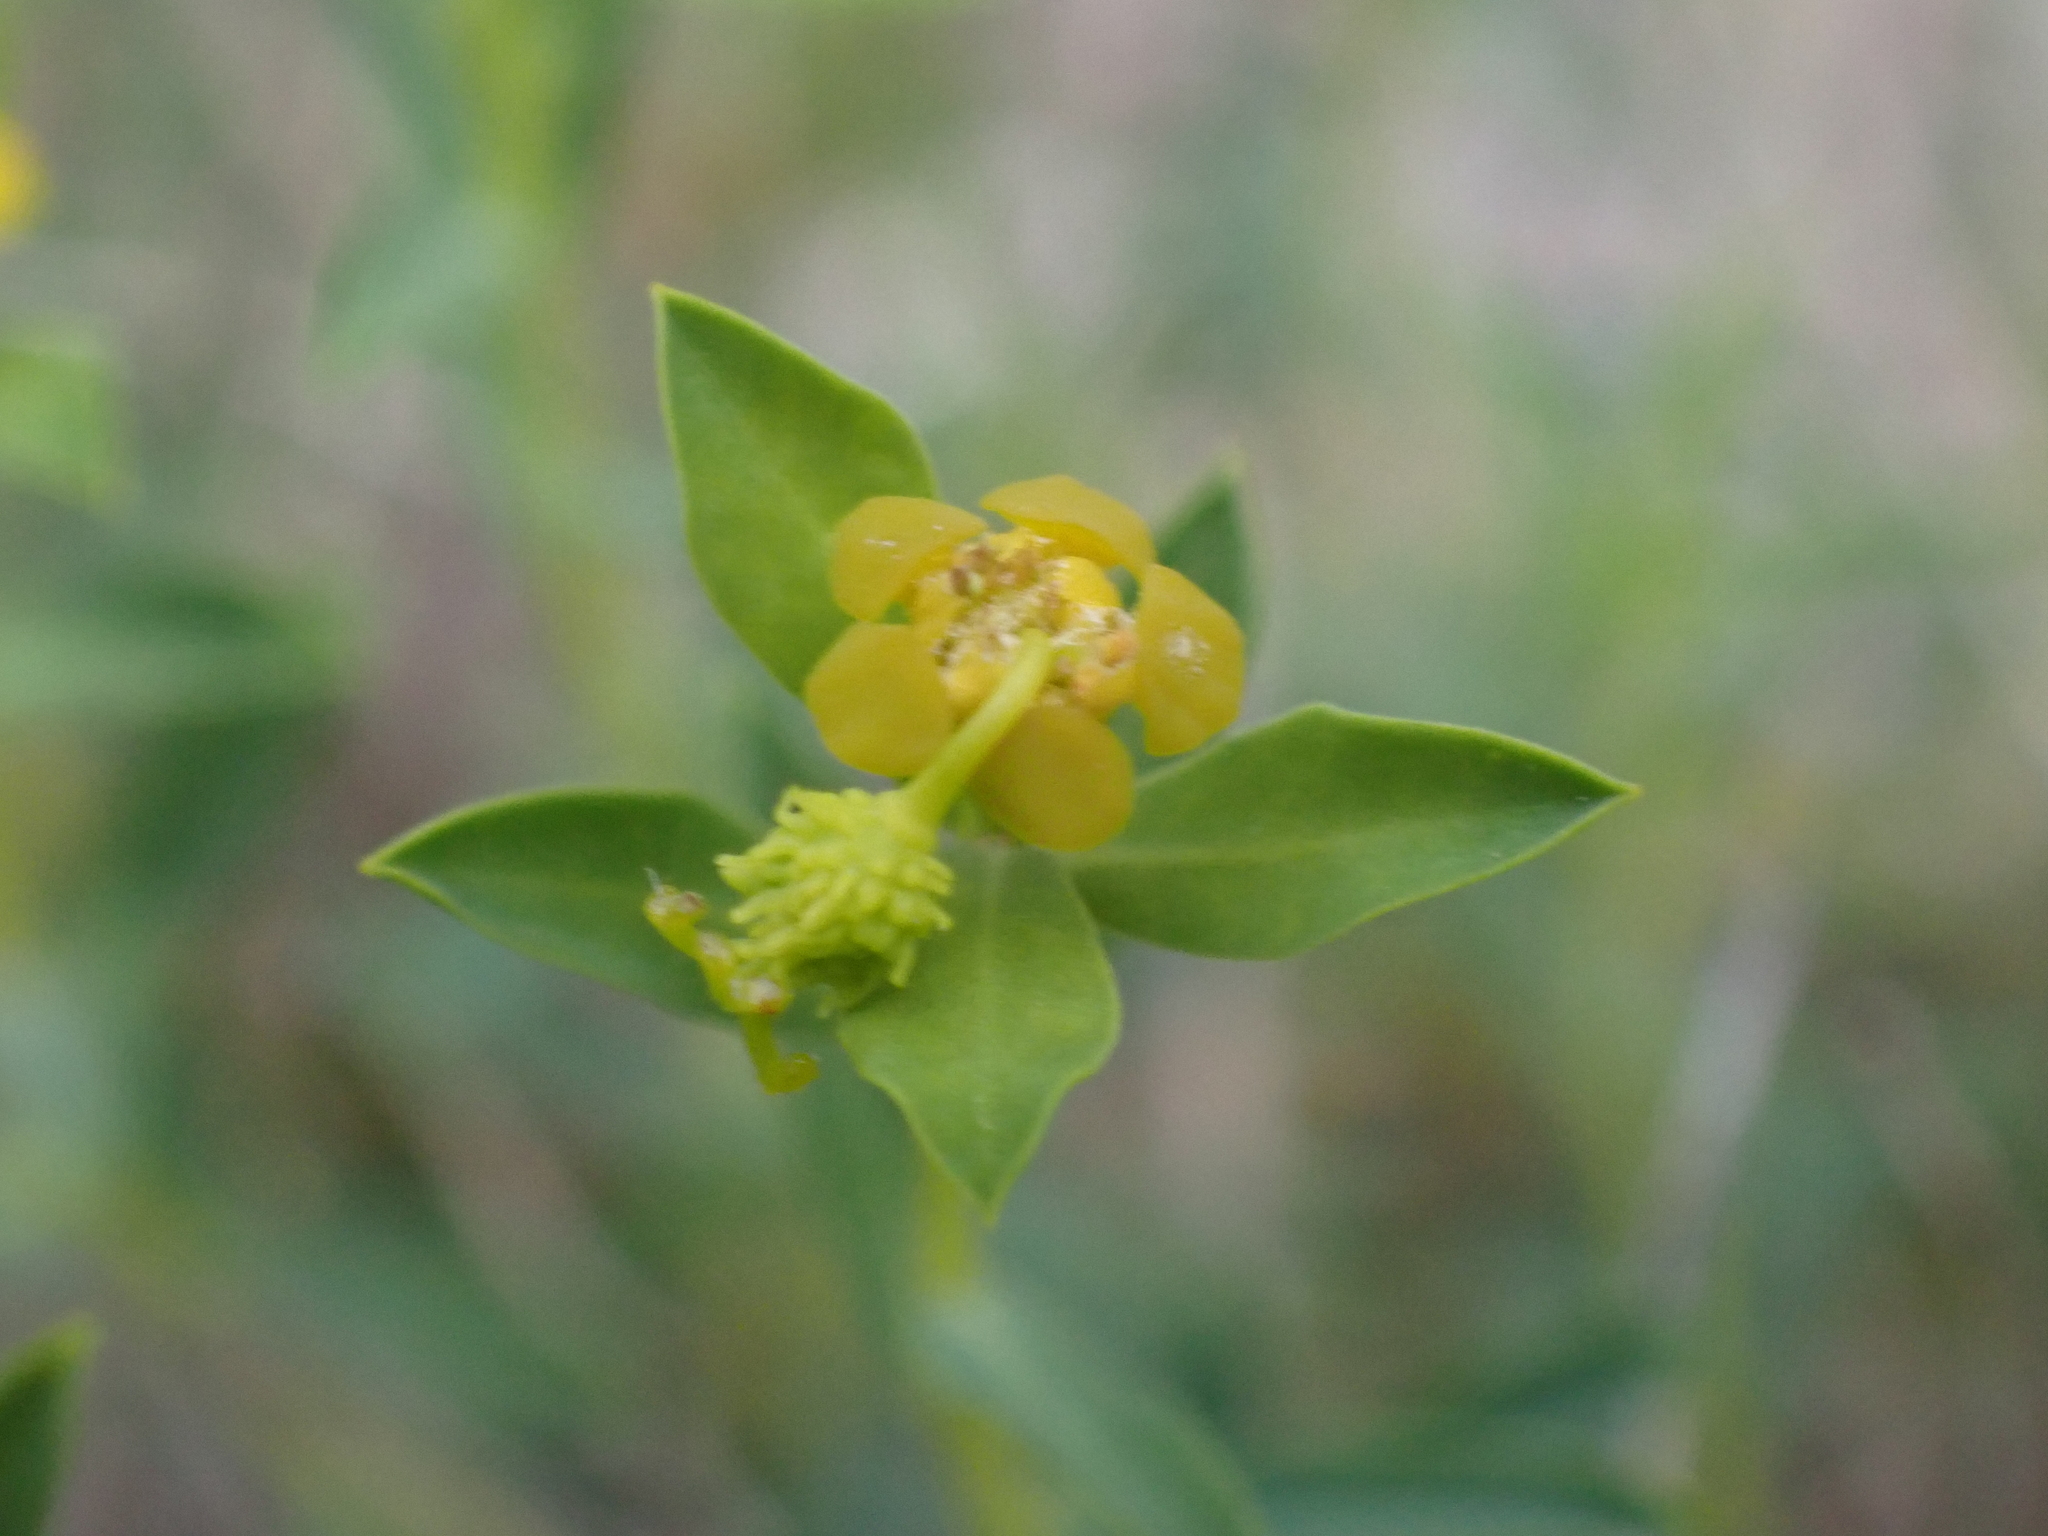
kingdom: Plantae
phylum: Tracheophyta
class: Magnoliopsida
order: Malpighiales
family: Euphorbiaceae
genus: Euphorbia
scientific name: Euphorbia spinosa
